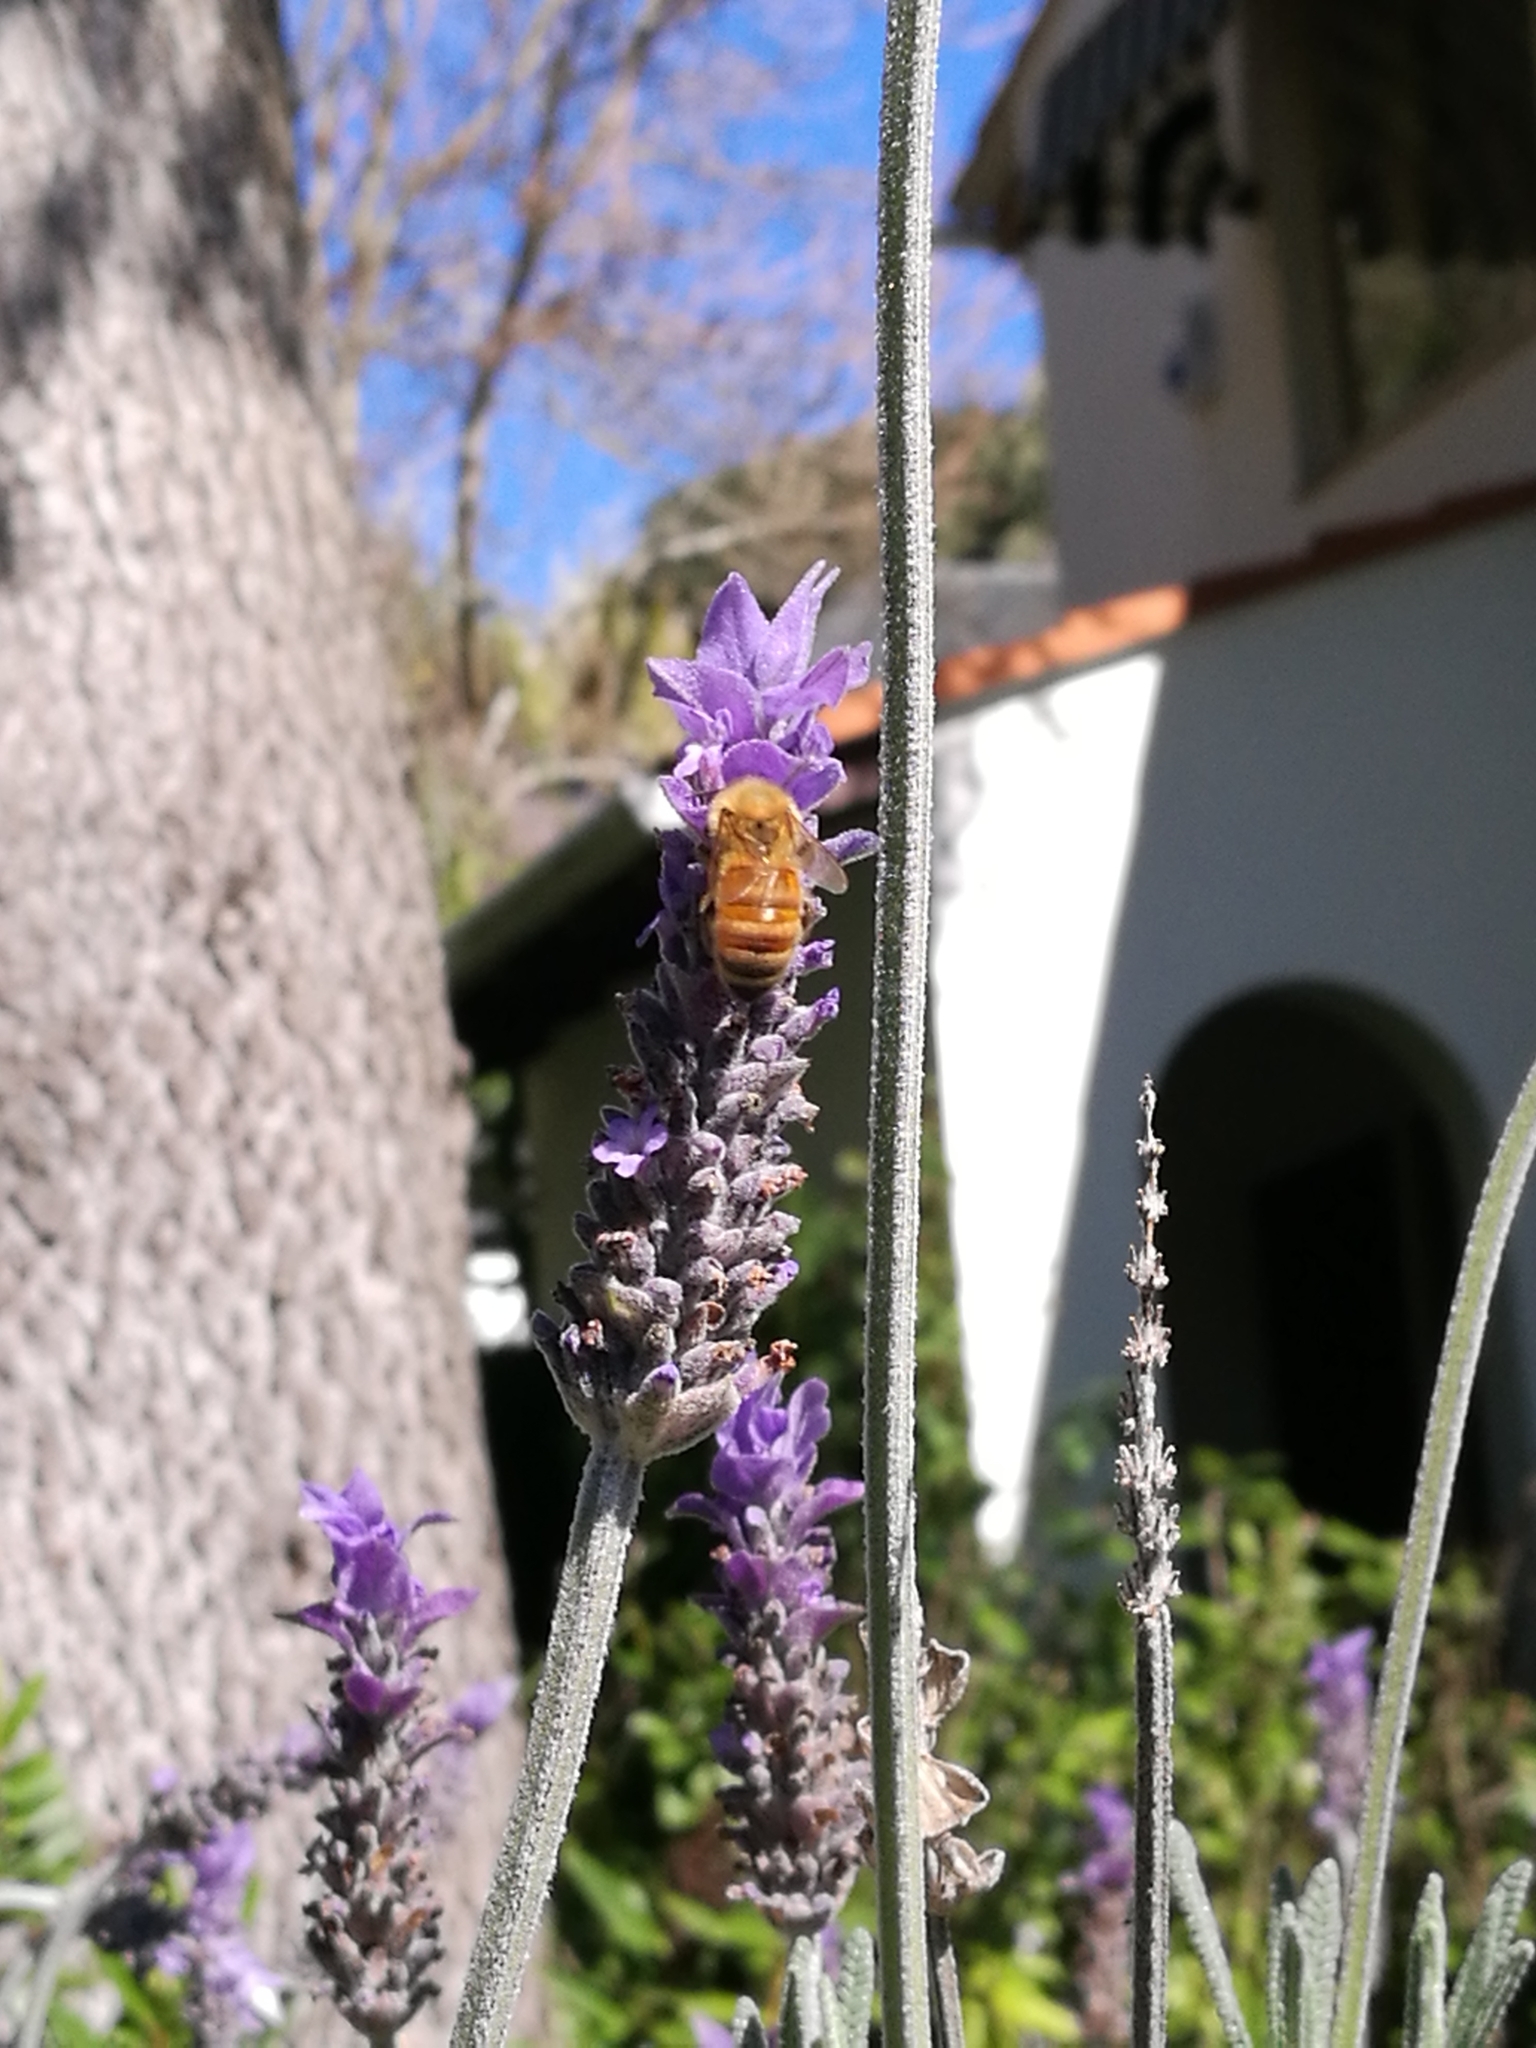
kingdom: Animalia
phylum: Arthropoda
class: Insecta
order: Hymenoptera
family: Apidae
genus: Apis
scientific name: Apis mellifera
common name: Honey bee
